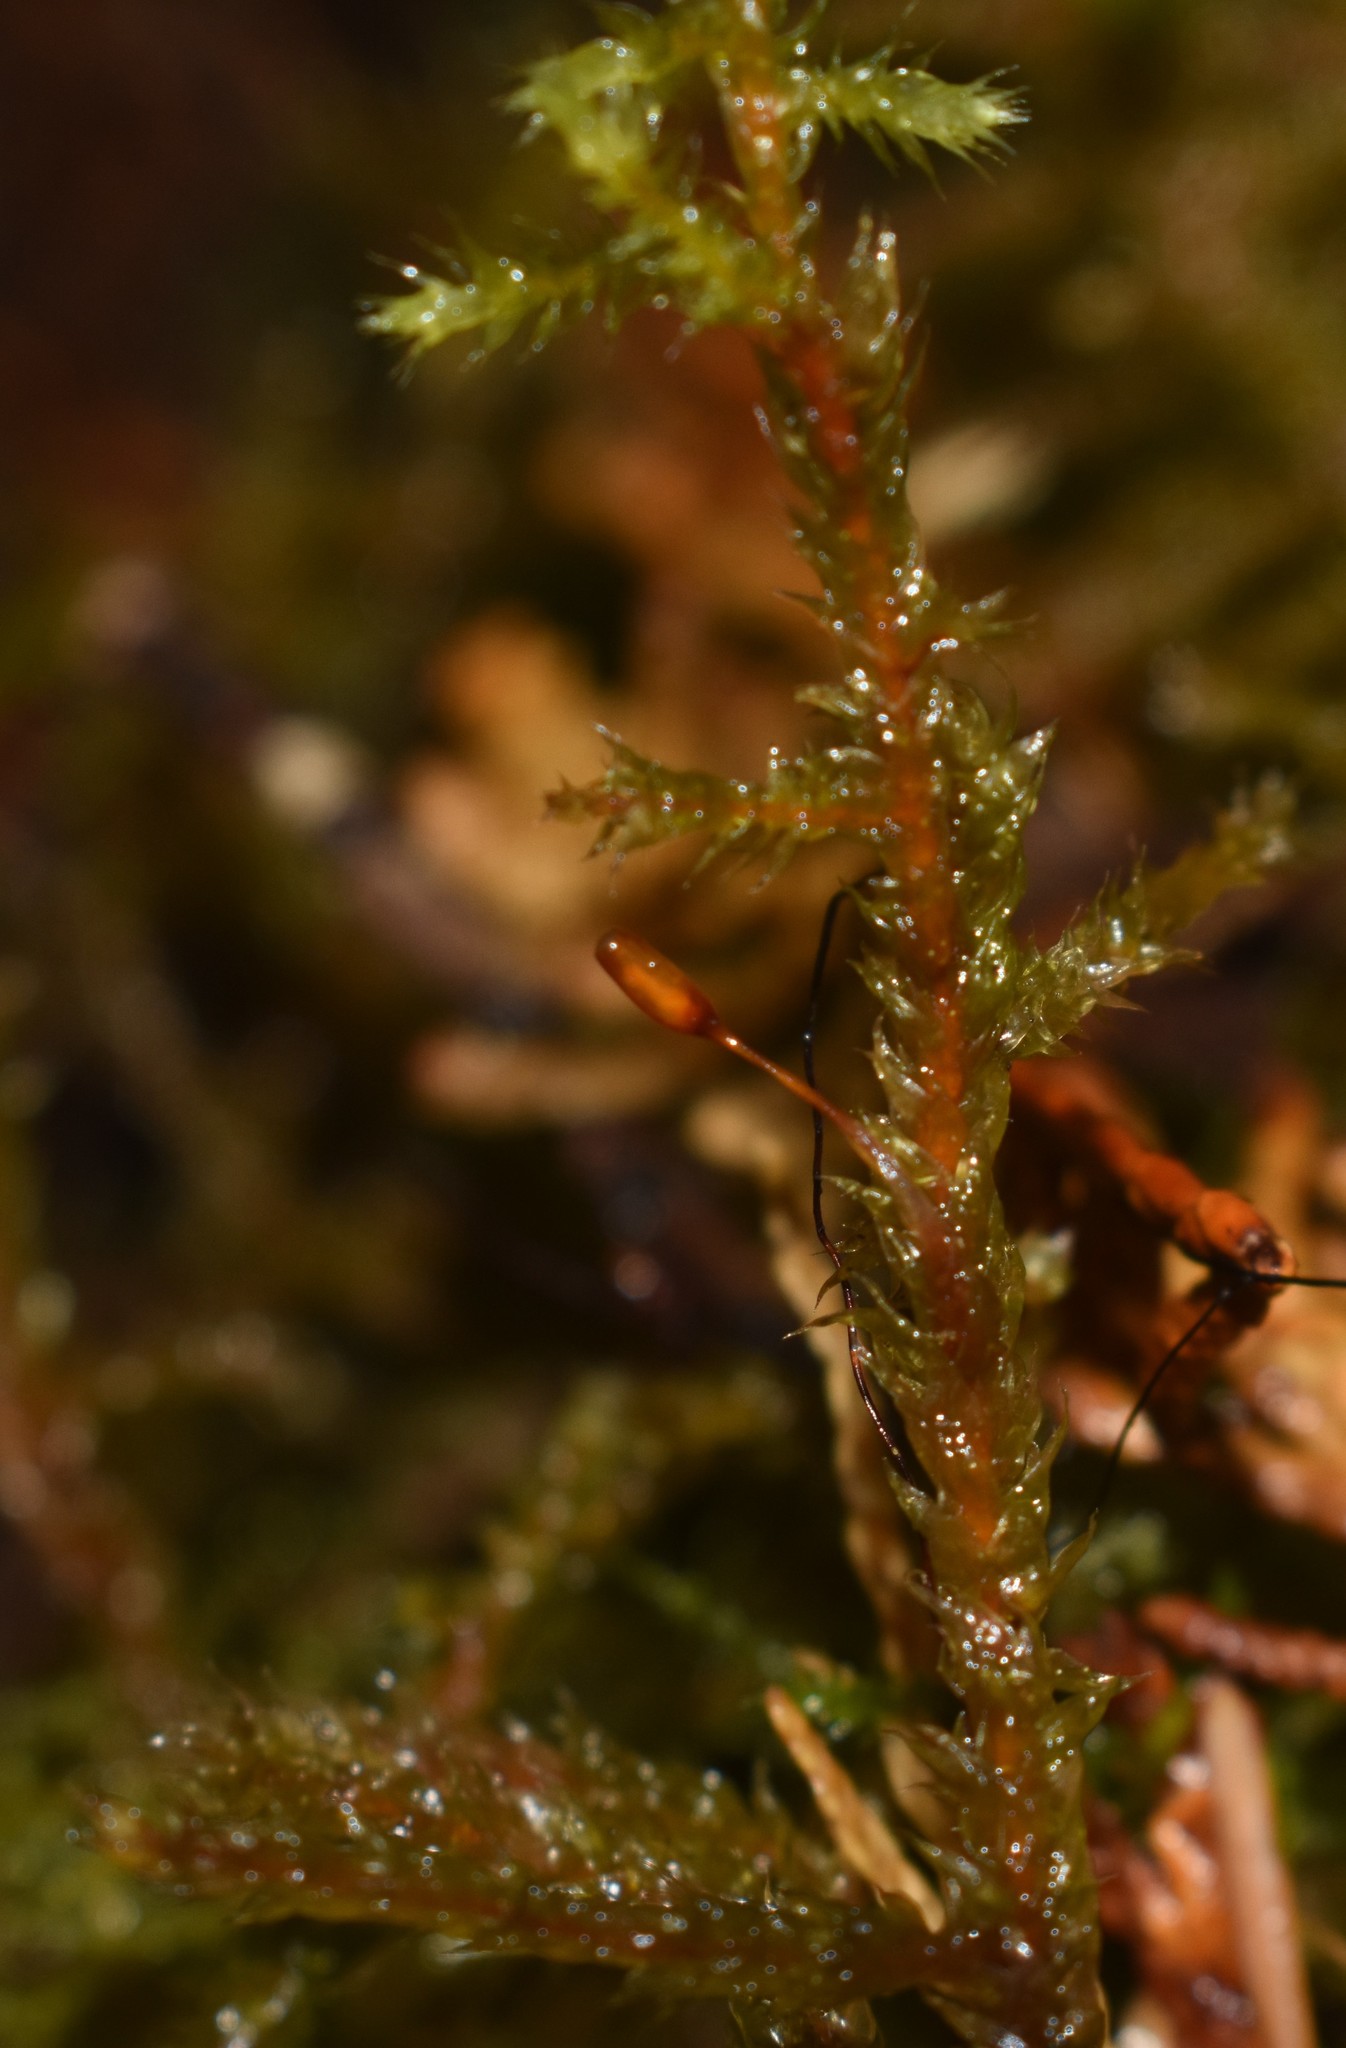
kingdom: Plantae
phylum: Bryophyta
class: Bryopsida
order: Hypnales
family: Antitrichiaceae
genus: Antitrichia
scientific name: Antitrichia curtipendula
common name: Pendulous wing-moss
